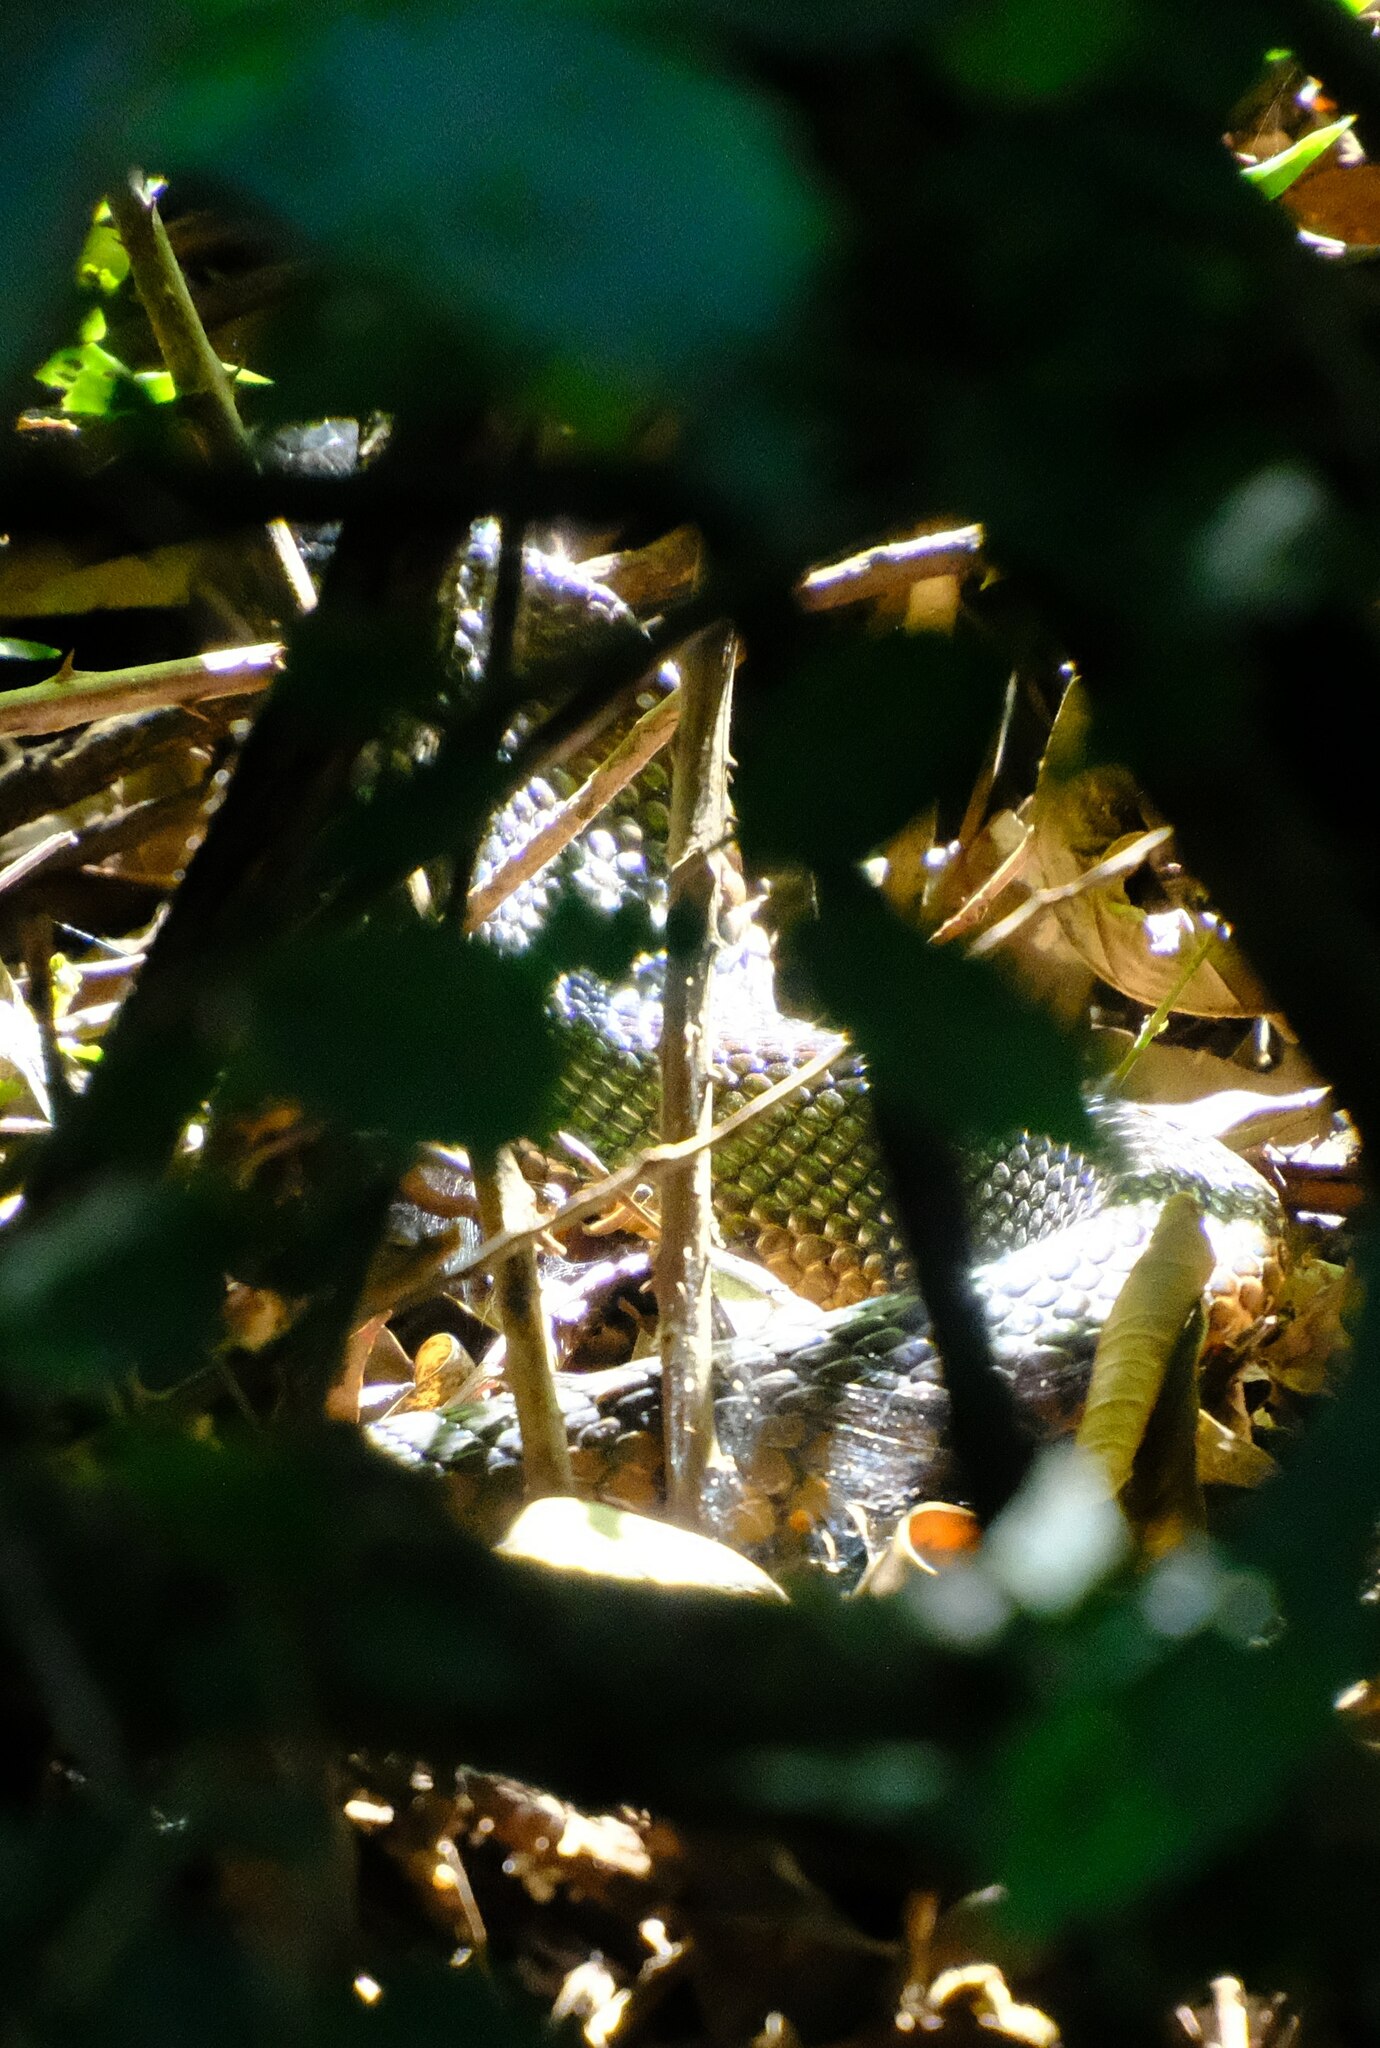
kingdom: Animalia
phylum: Chordata
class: Squamata
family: Elapidae
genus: Naja
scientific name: Naja subfulva
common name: Brown forest cobra
